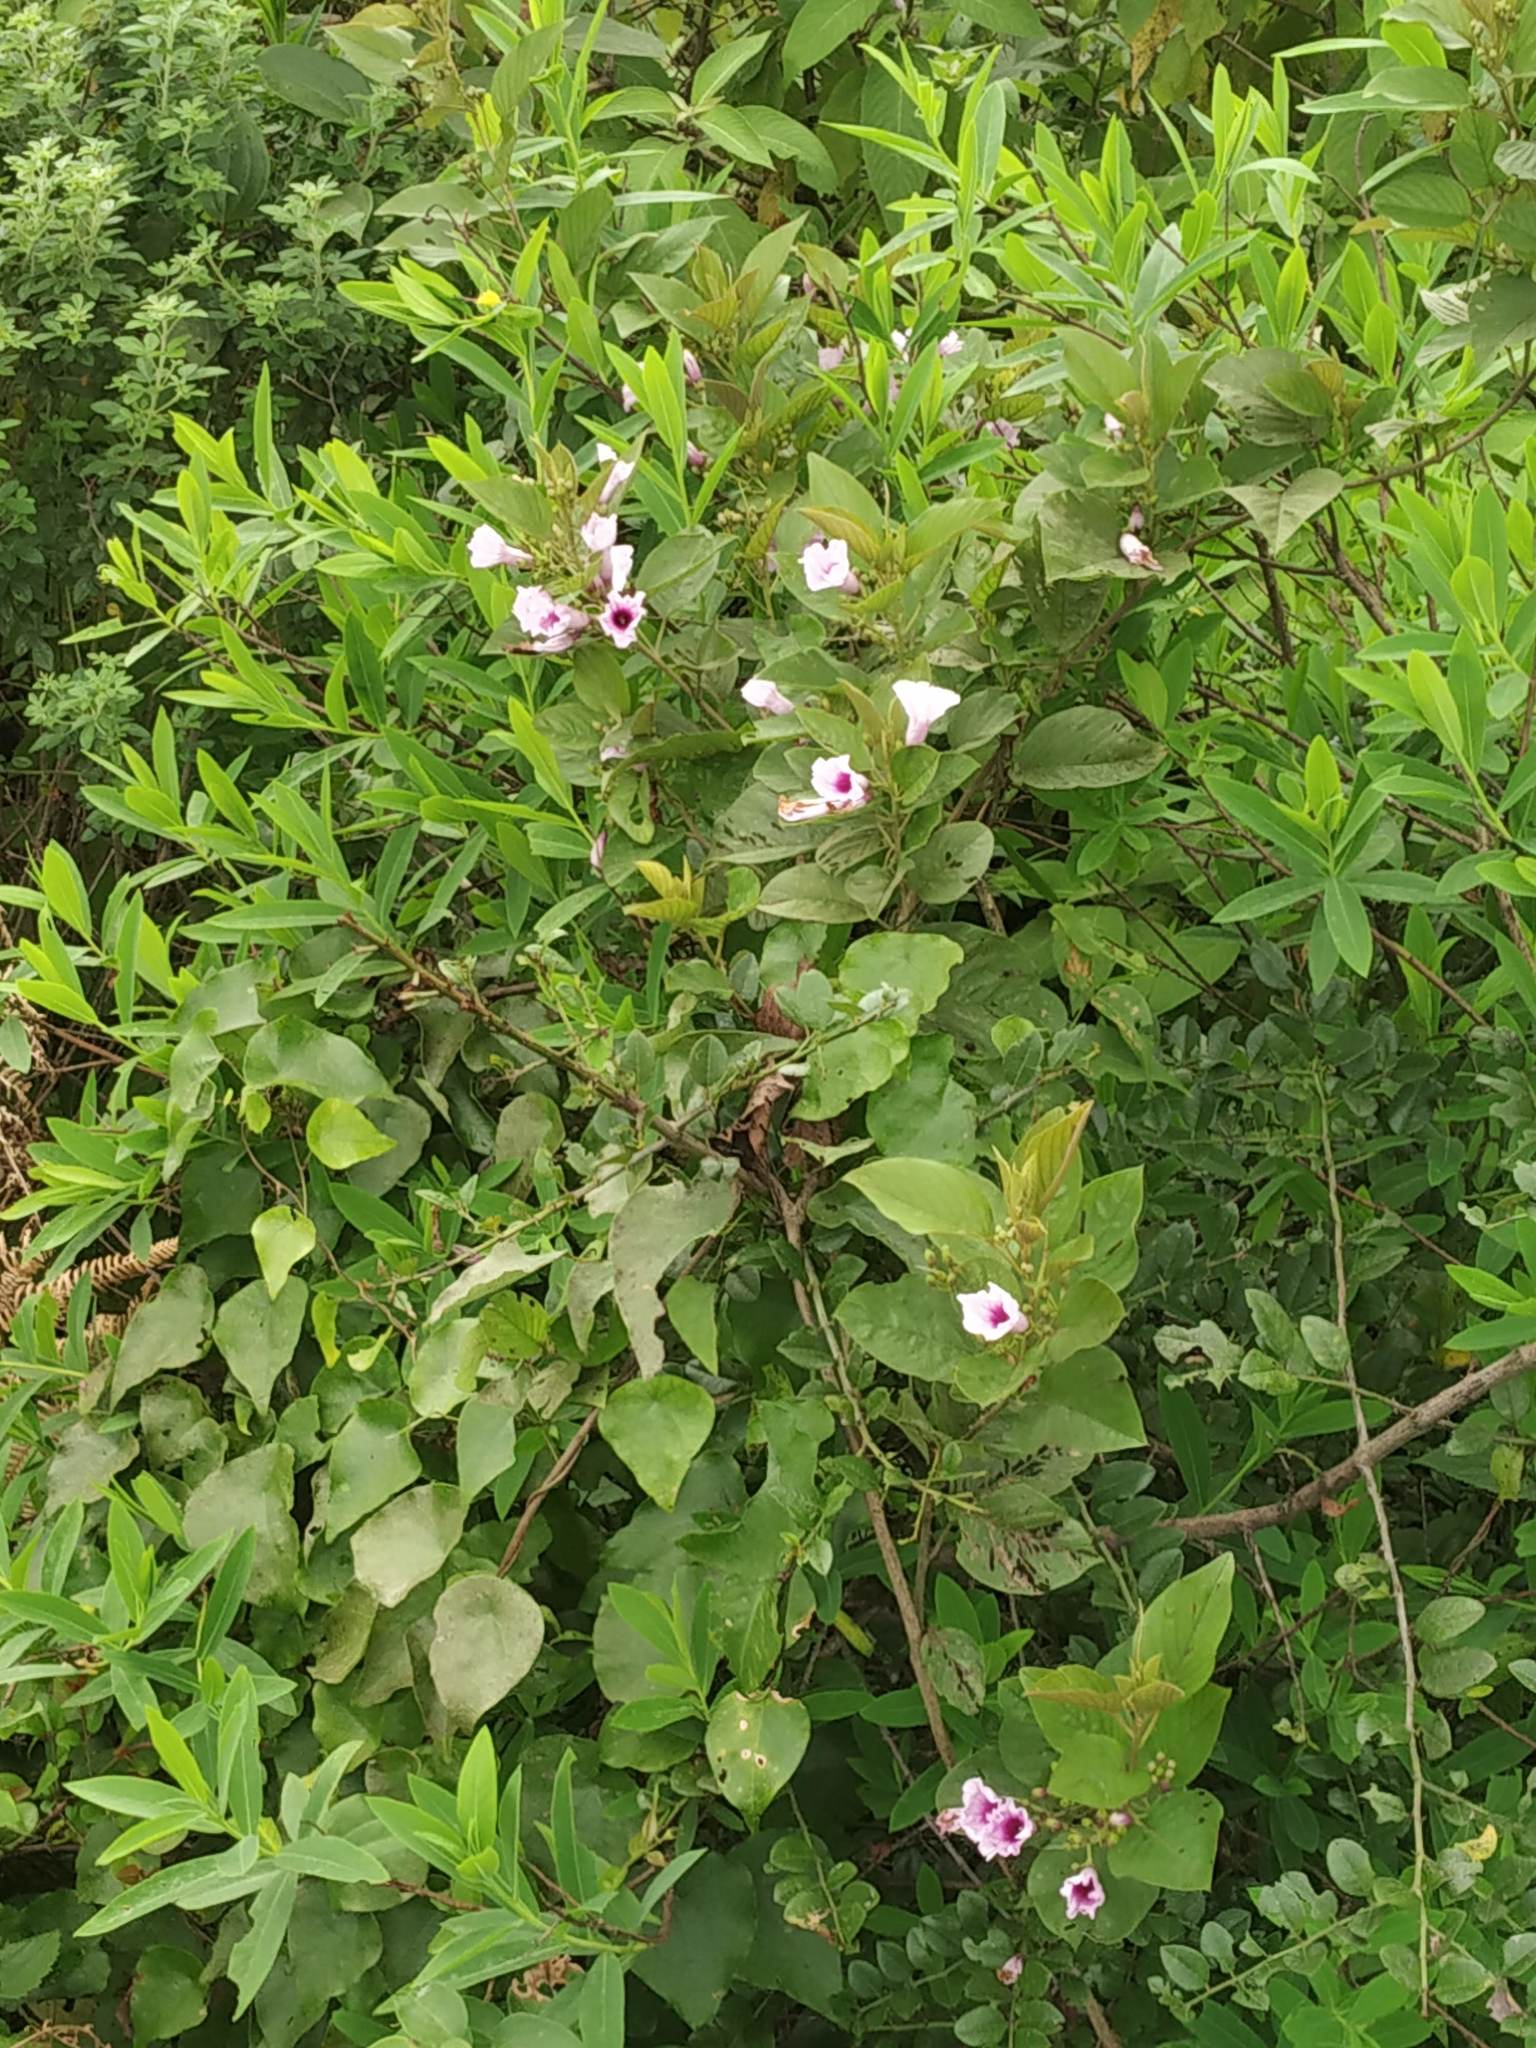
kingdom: Plantae
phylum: Tracheophyta
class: Magnoliopsida
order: Solanales
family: Convolvulaceae
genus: Argyreia
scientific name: Argyreia elliptica
